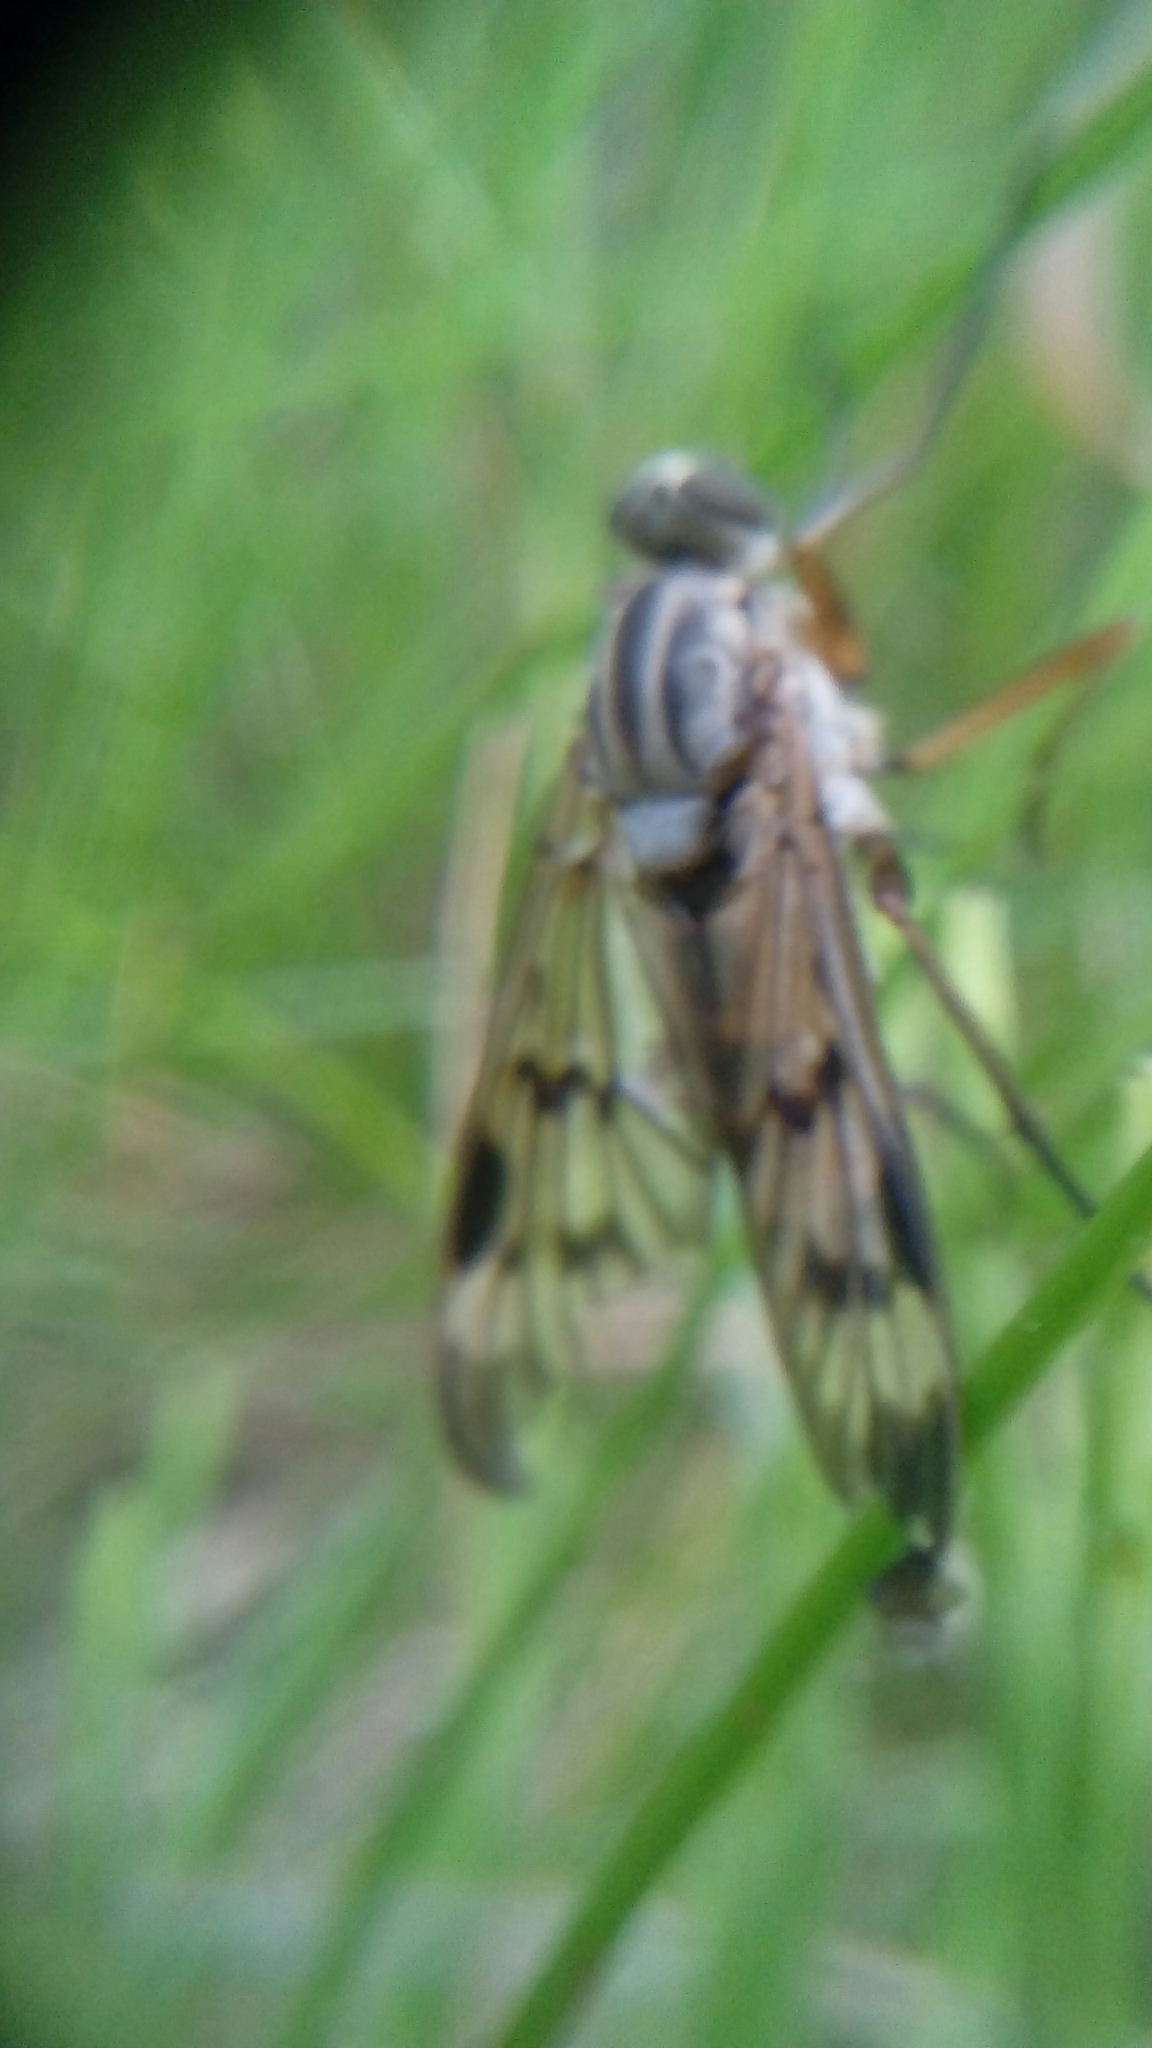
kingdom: Animalia
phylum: Arthropoda
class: Insecta
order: Diptera
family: Rhagionidae
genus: Rhagio
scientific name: Rhagio scolopacea
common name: Downlooker snipefly
